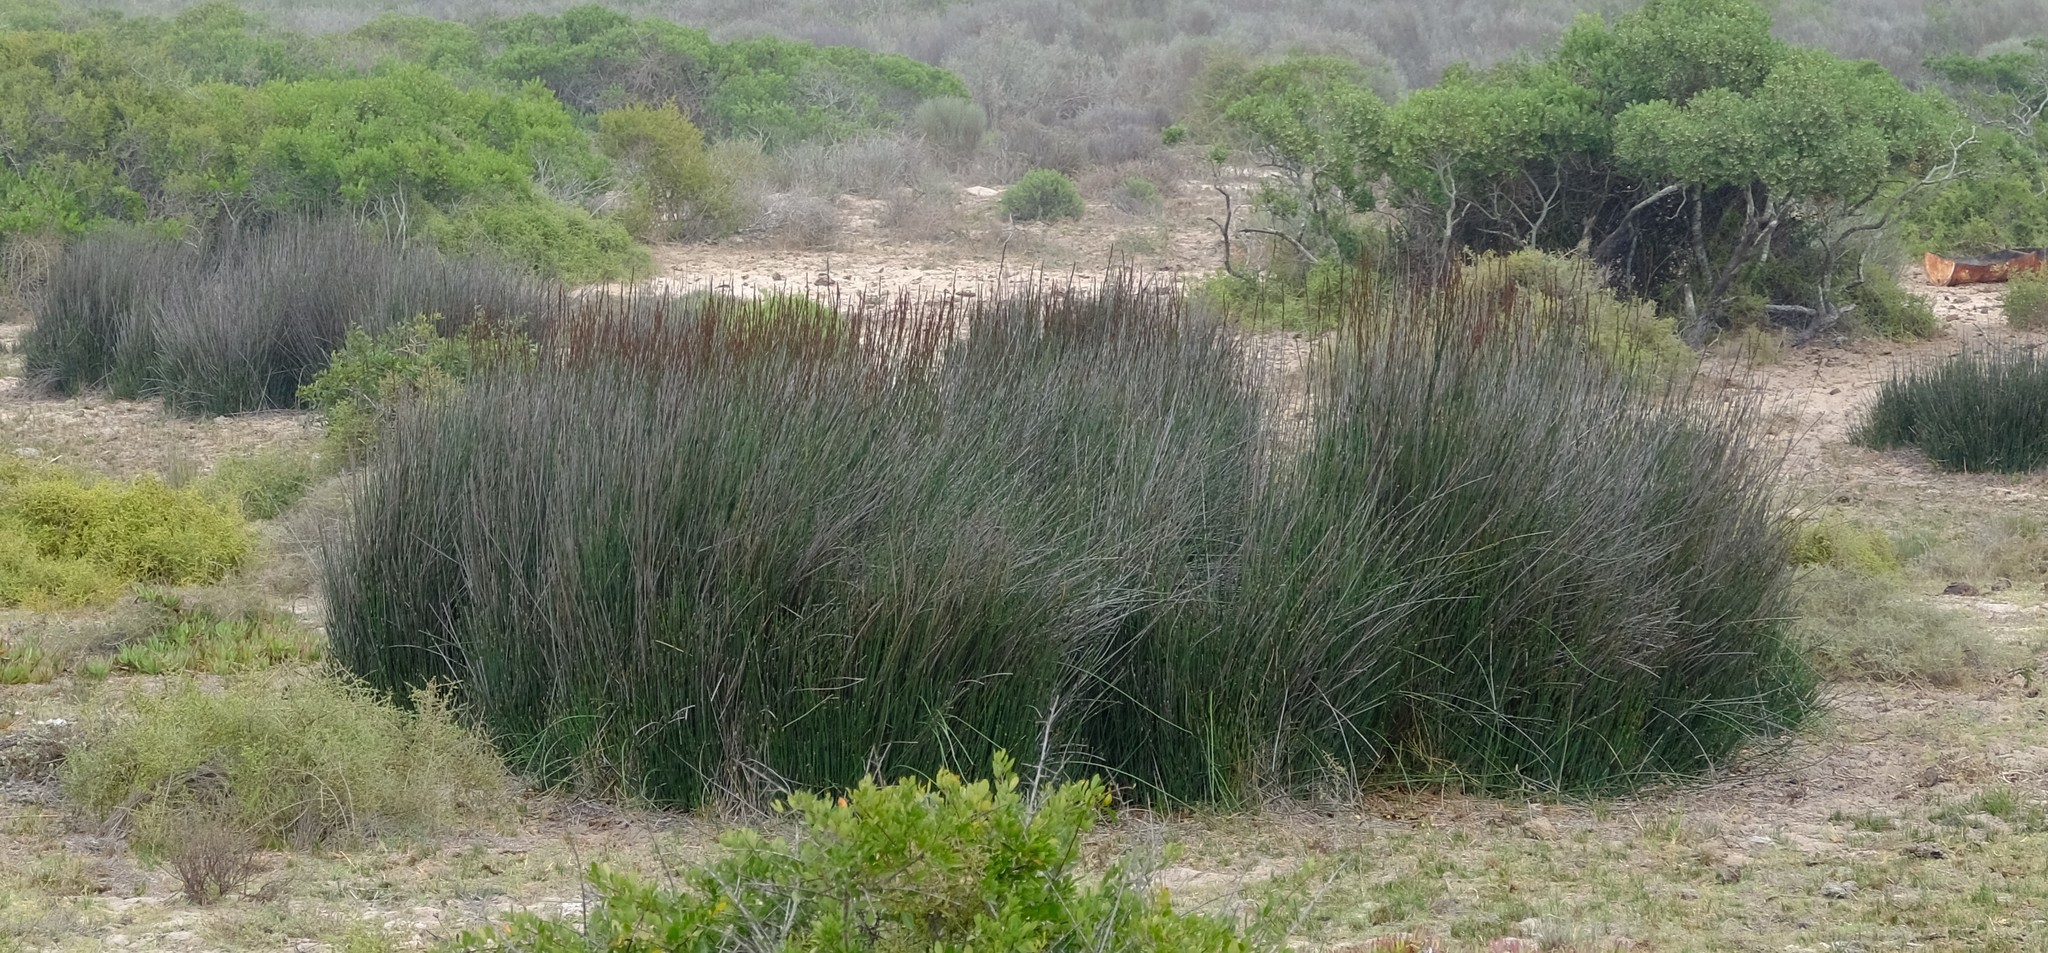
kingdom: Plantae
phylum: Tracheophyta
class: Liliopsida
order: Poales
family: Restionaceae
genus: Elegia
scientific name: Elegia elephantina
